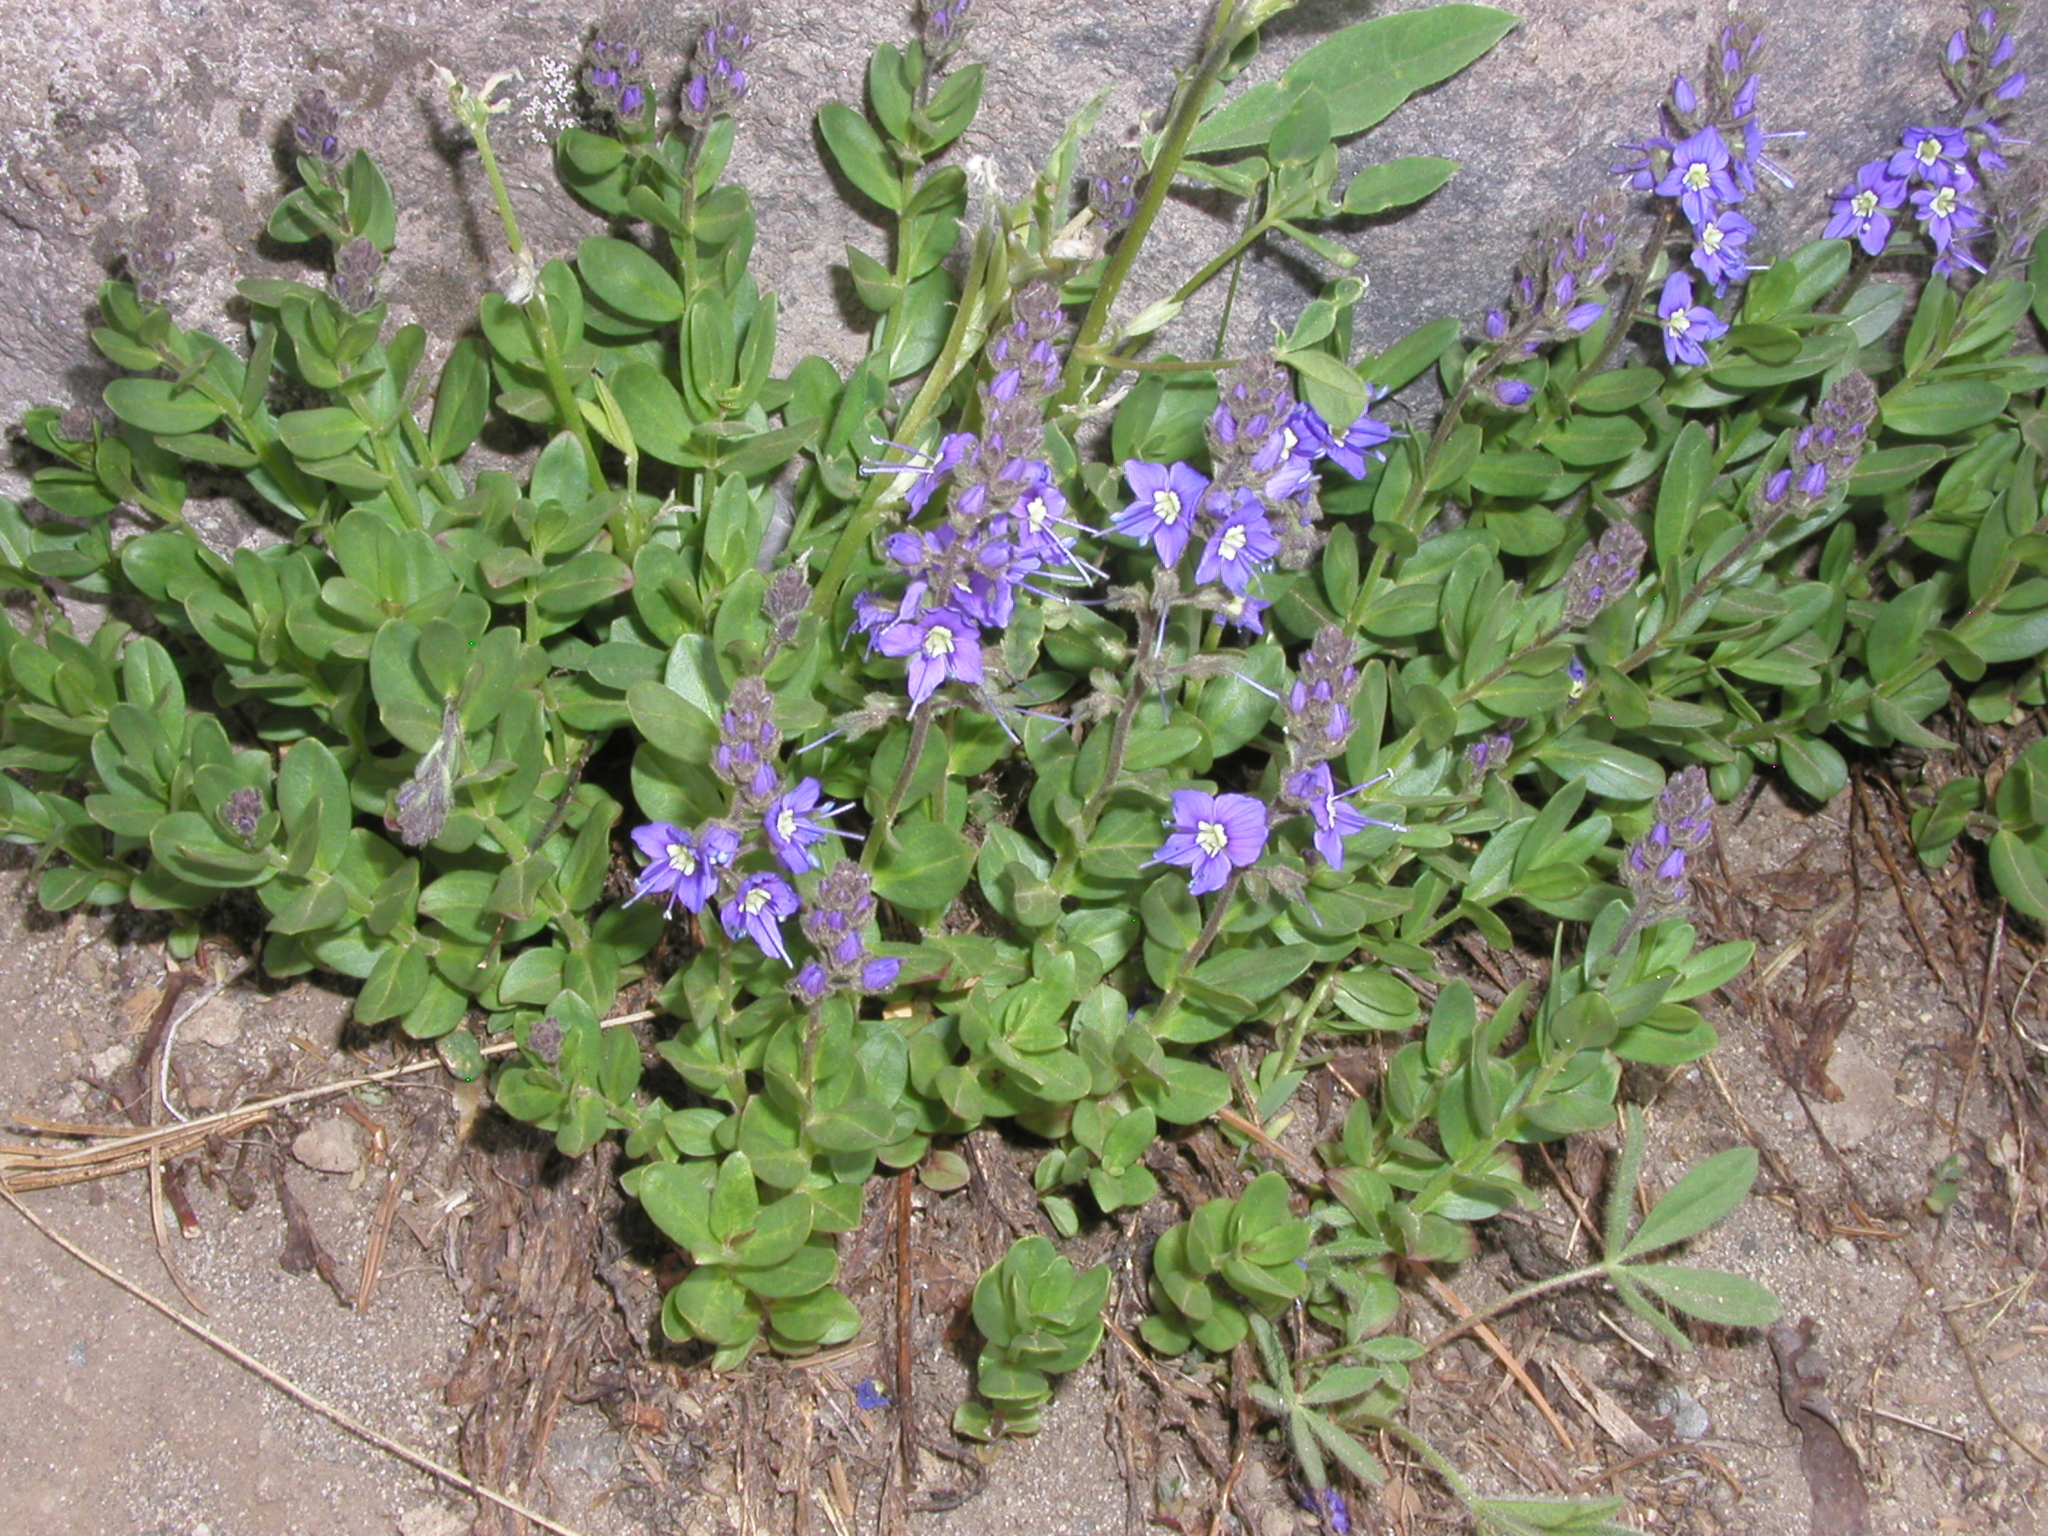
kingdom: Plantae
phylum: Tracheophyta
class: Magnoliopsida
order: Lamiales
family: Plantaginaceae
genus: Veronica
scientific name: Veronica cusickii
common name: Cusick's speedwell
